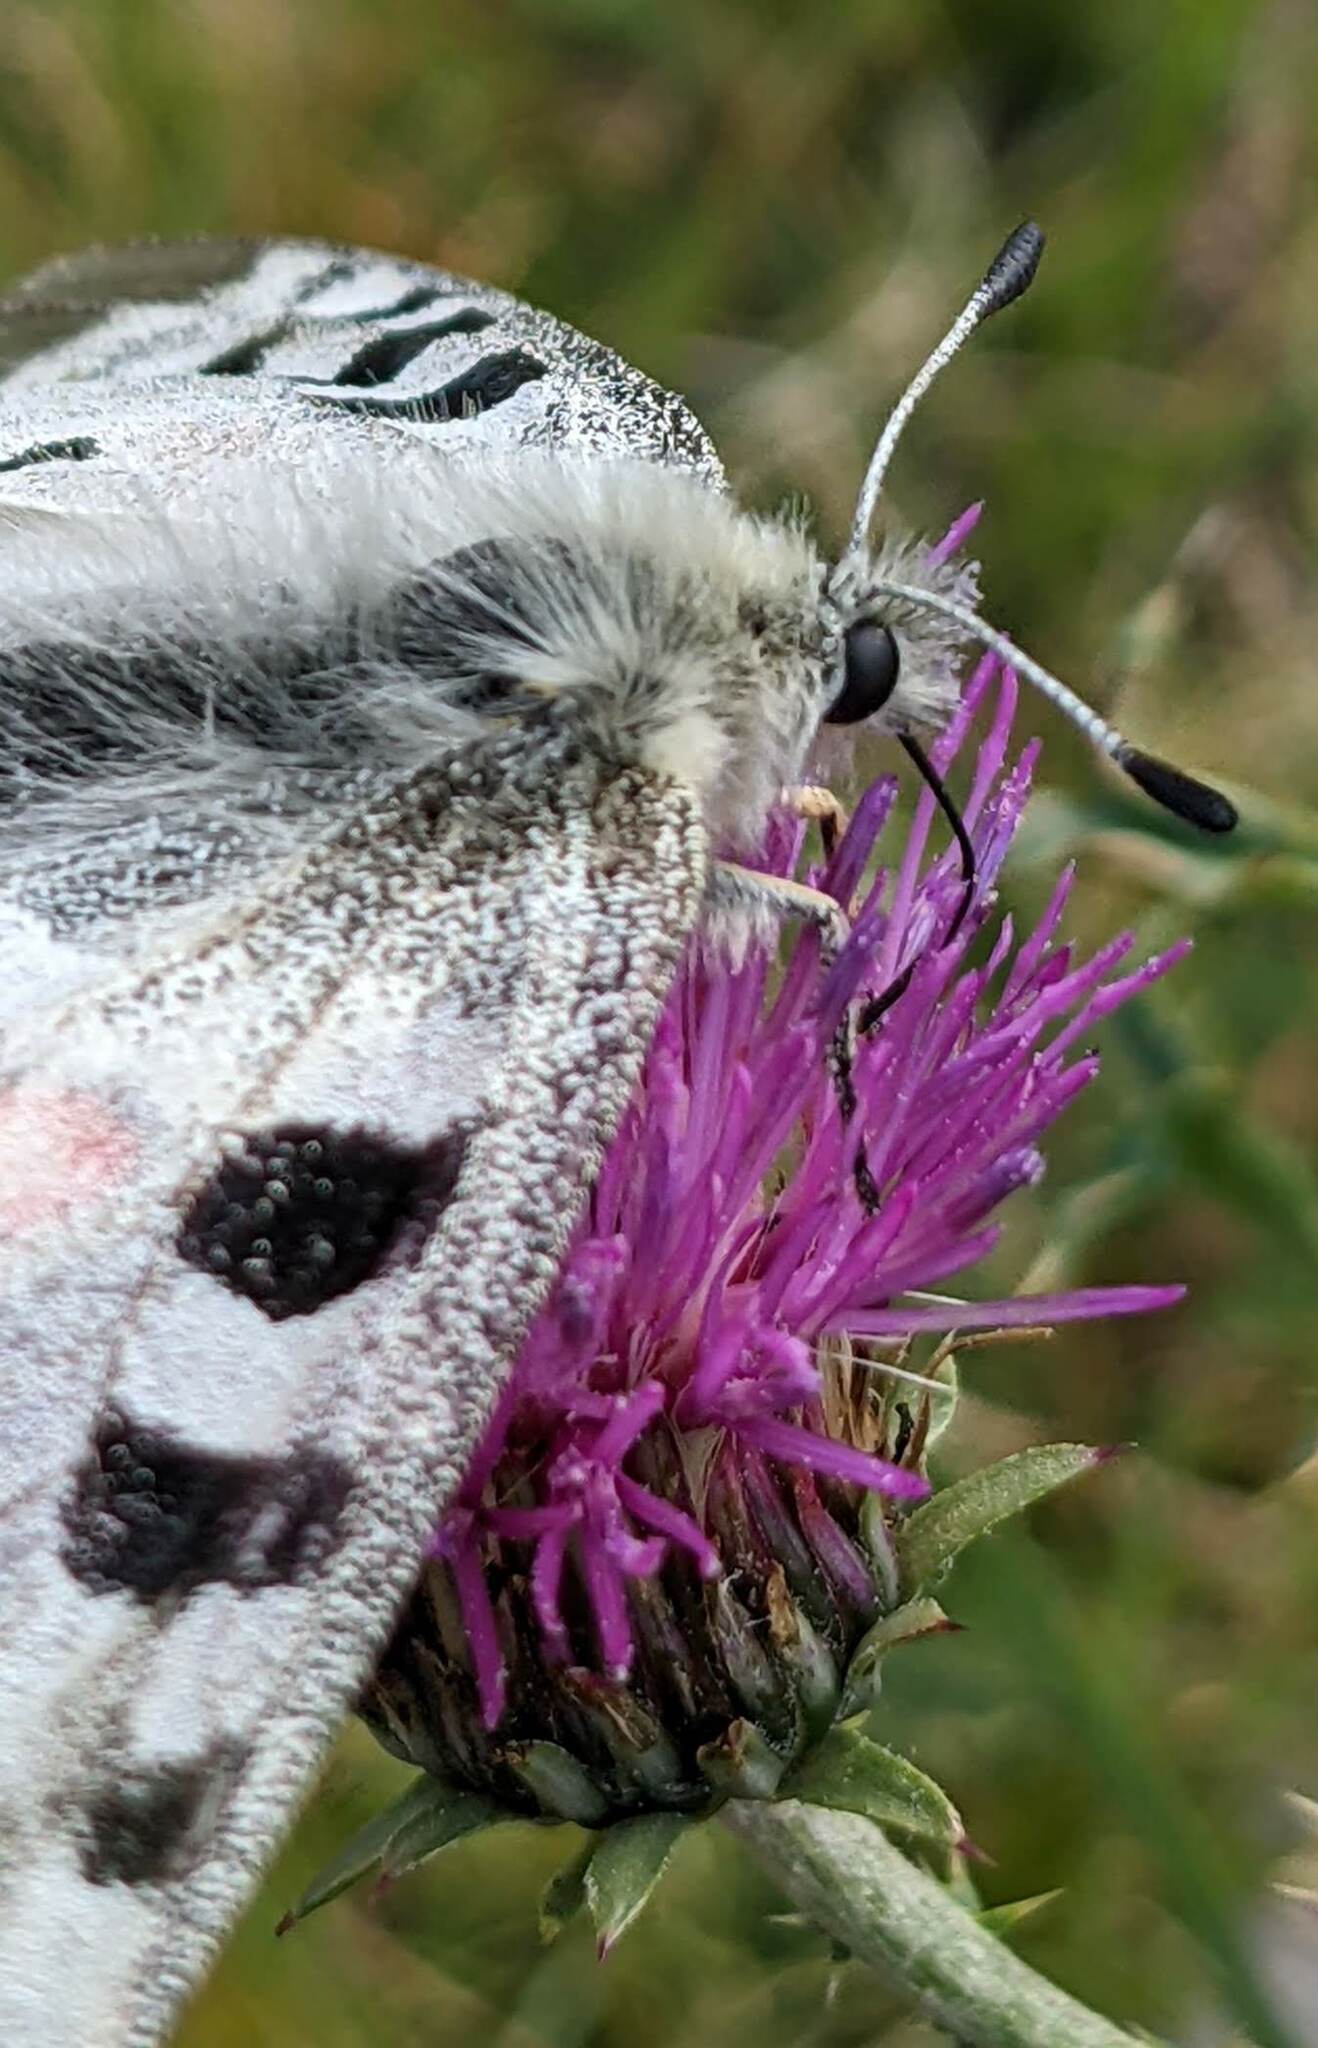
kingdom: Animalia
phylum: Arthropoda
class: Insecta
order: Lepidoptera
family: Papilionidae
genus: Parnassius
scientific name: Parnassius apollo
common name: Apollo
